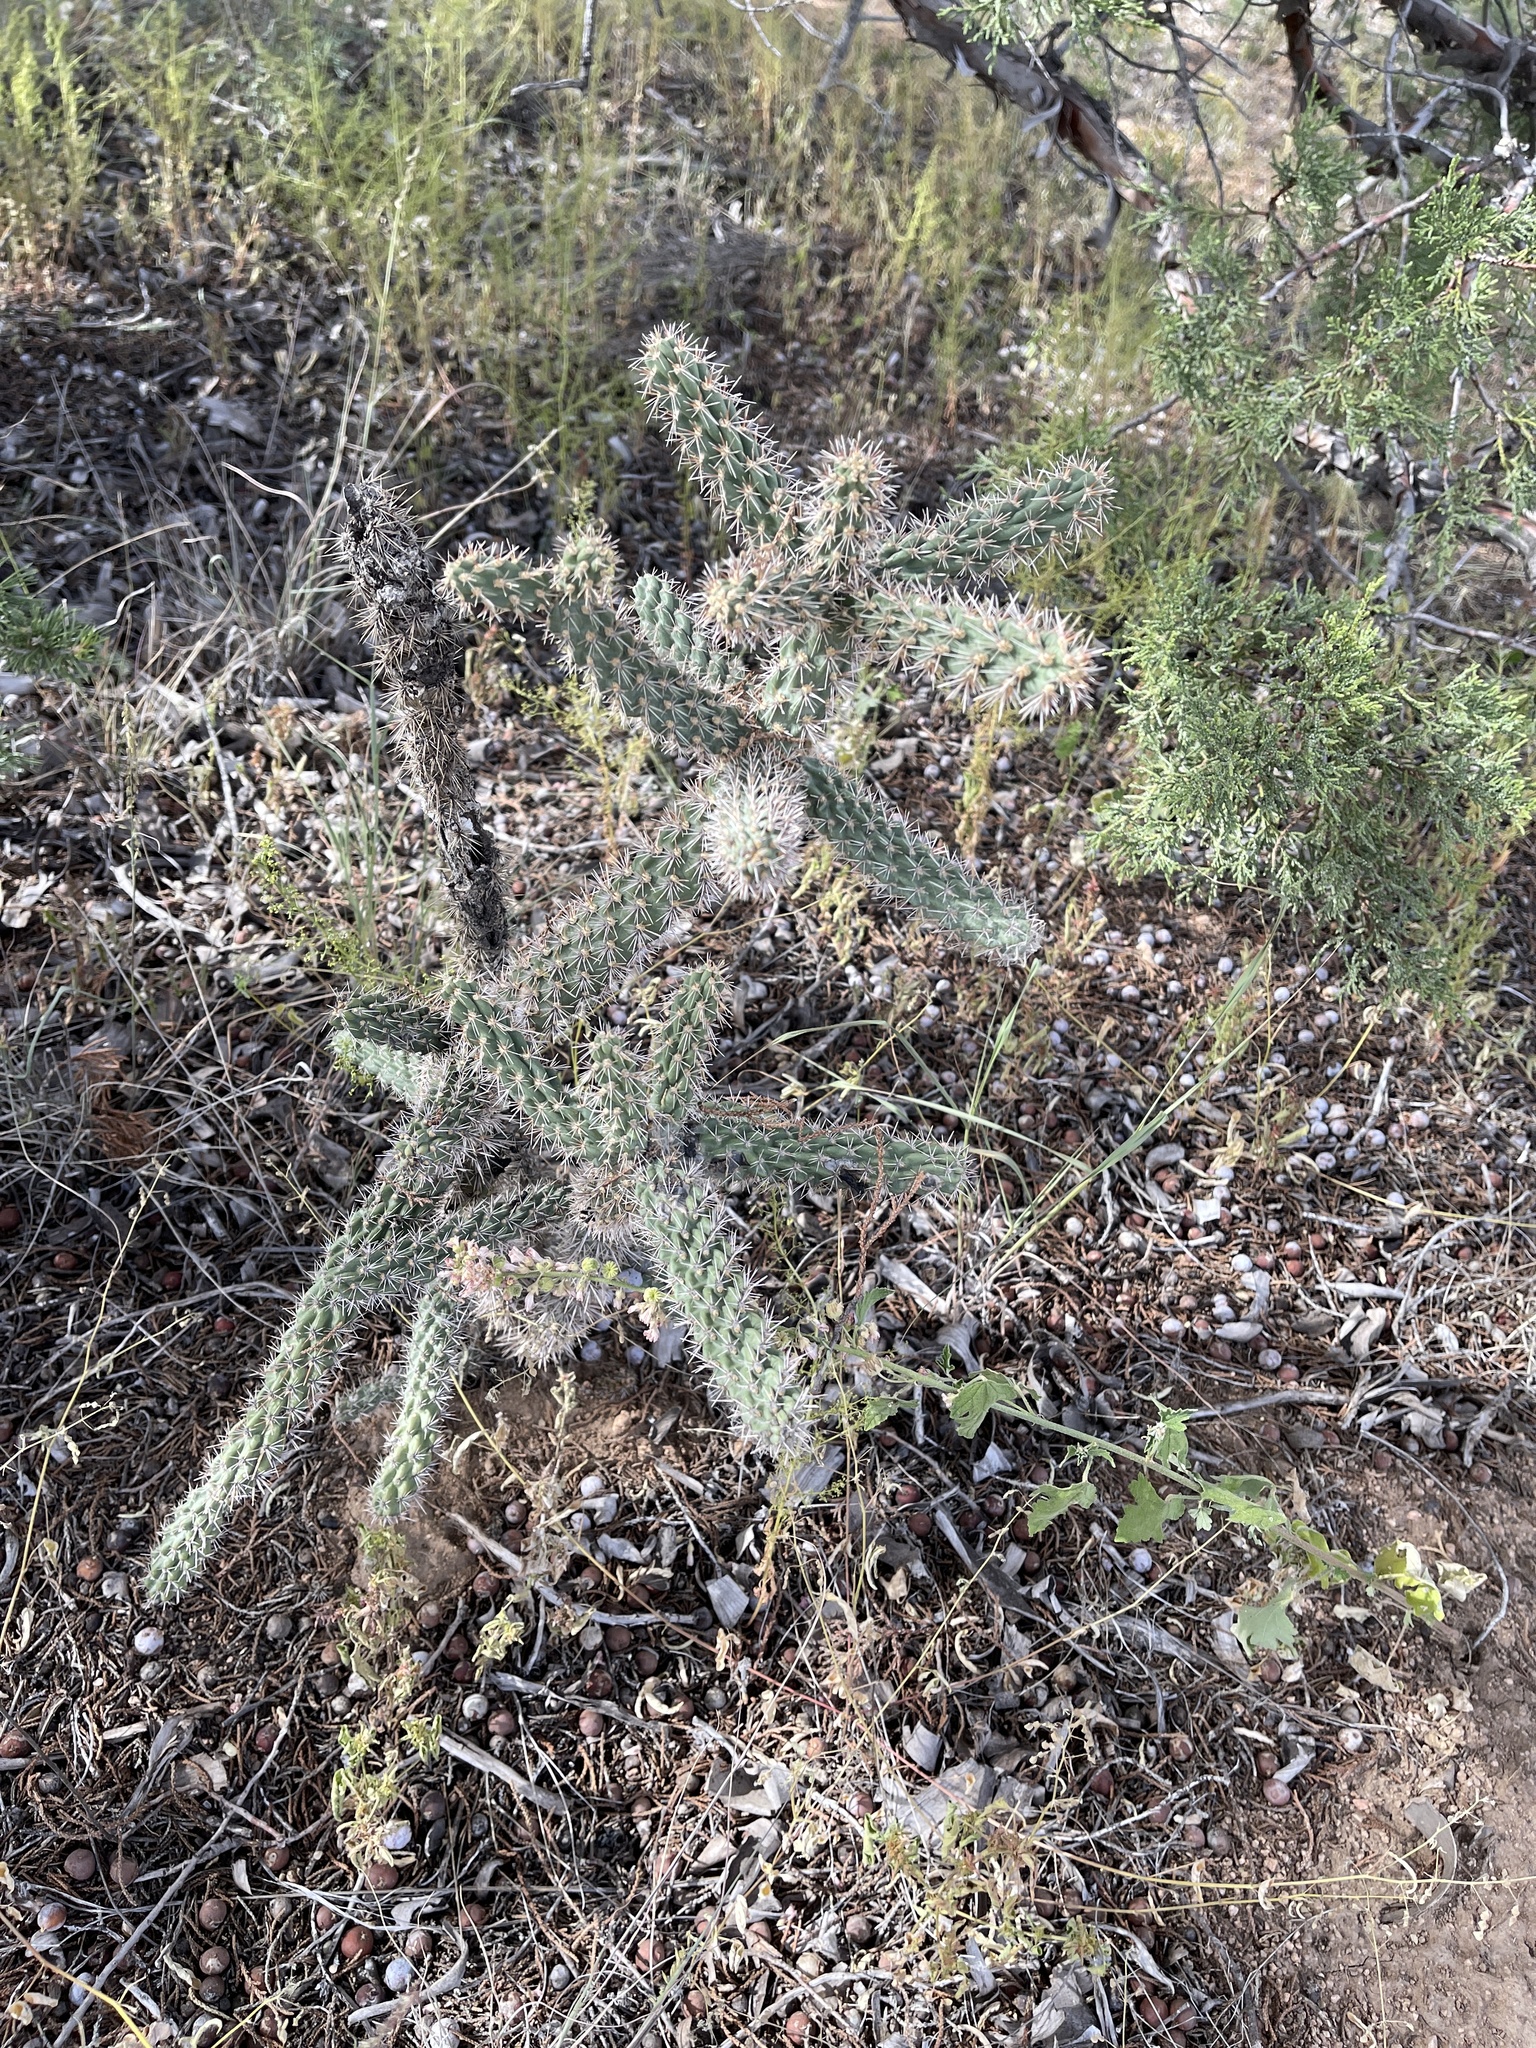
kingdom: Plantae
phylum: Tracheophyta
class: Magnoliopsida
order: Caryophyllales
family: Cactaceae
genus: Cylindropuntia
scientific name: Cylindropuntia imbricata
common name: Candelabrum cactus
